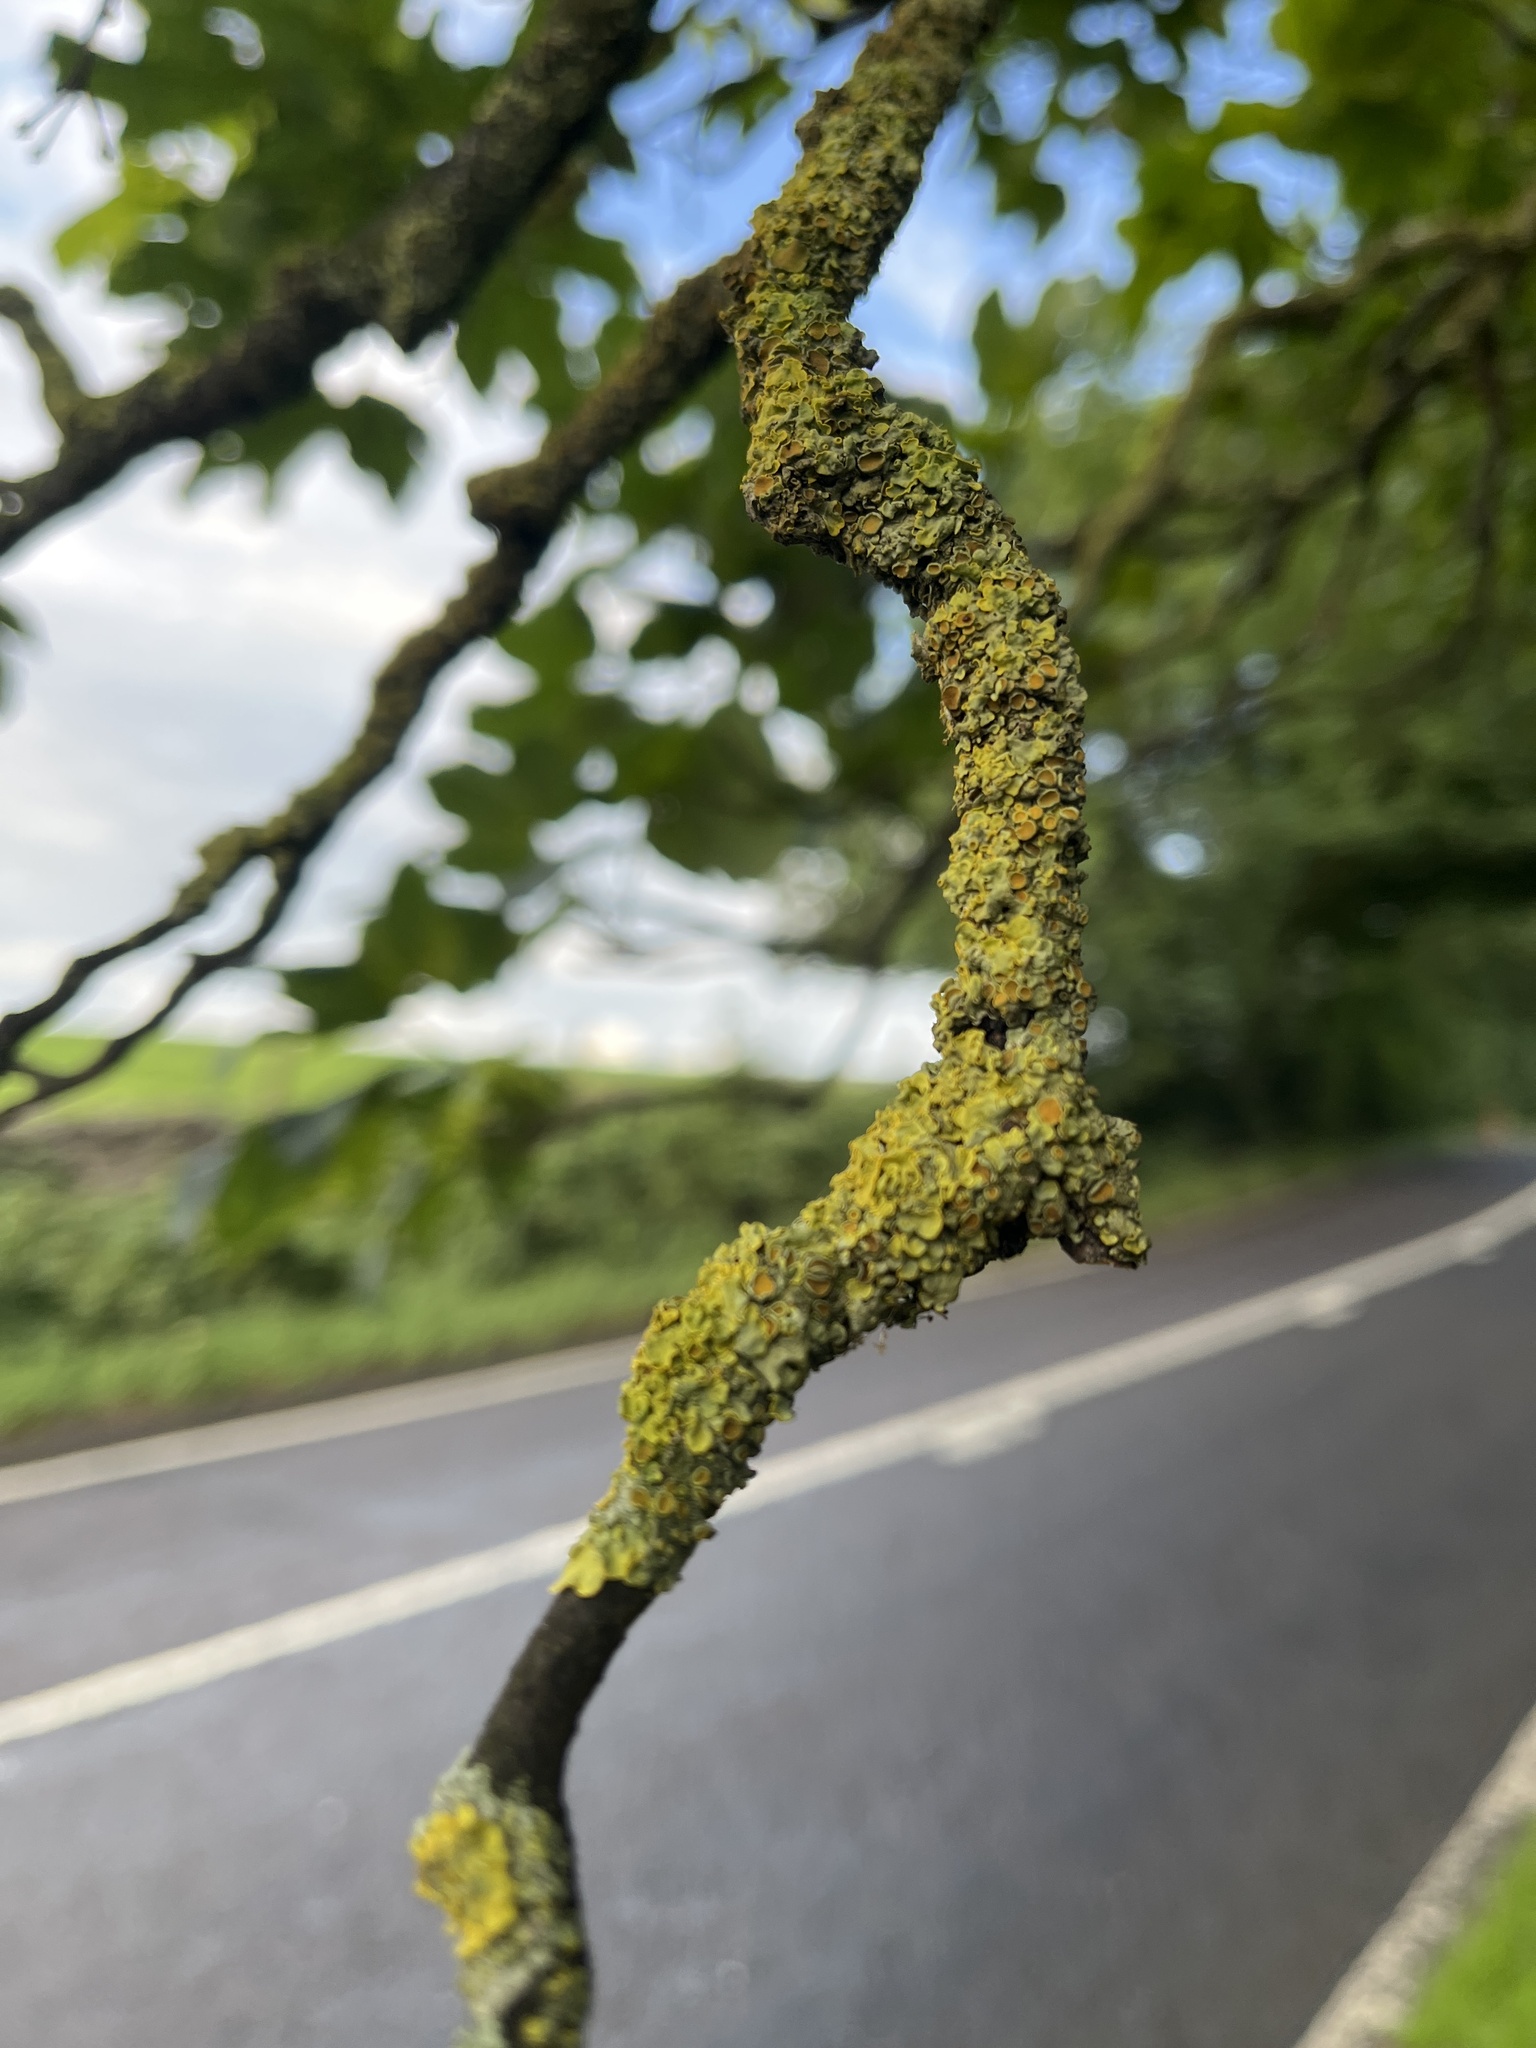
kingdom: Fungi
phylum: Ascomycota
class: Lecanoromycetes
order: Teloschistales
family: Teloschistaceae
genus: Xanthoria
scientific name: Xanthoria parietina
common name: Common orange lichen
